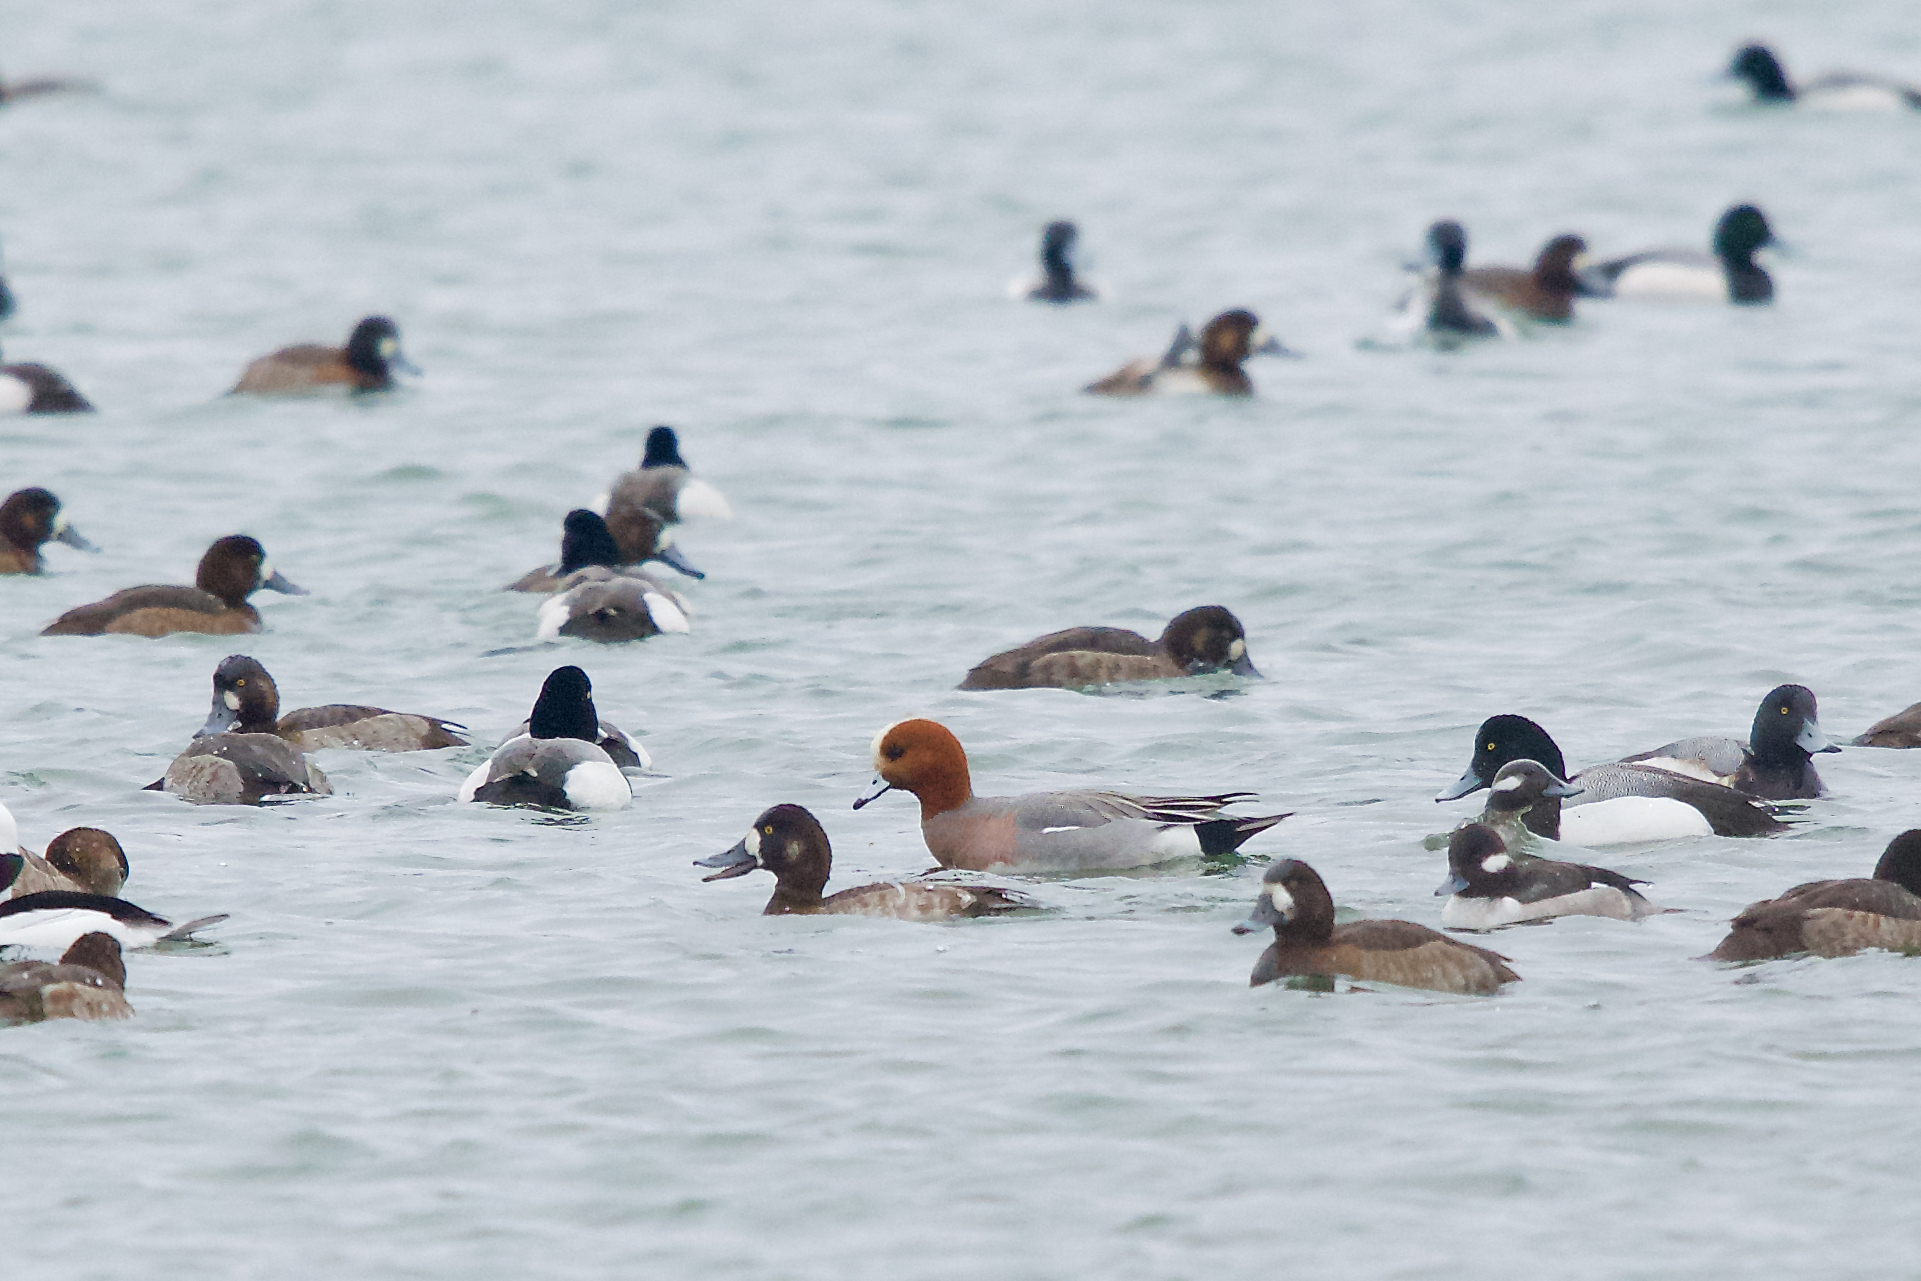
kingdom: Animalia
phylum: Chordata
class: Aves
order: Anseriformes
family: Anatidae
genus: Mareca
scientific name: Mareca penelope
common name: Eurasian wigeon
